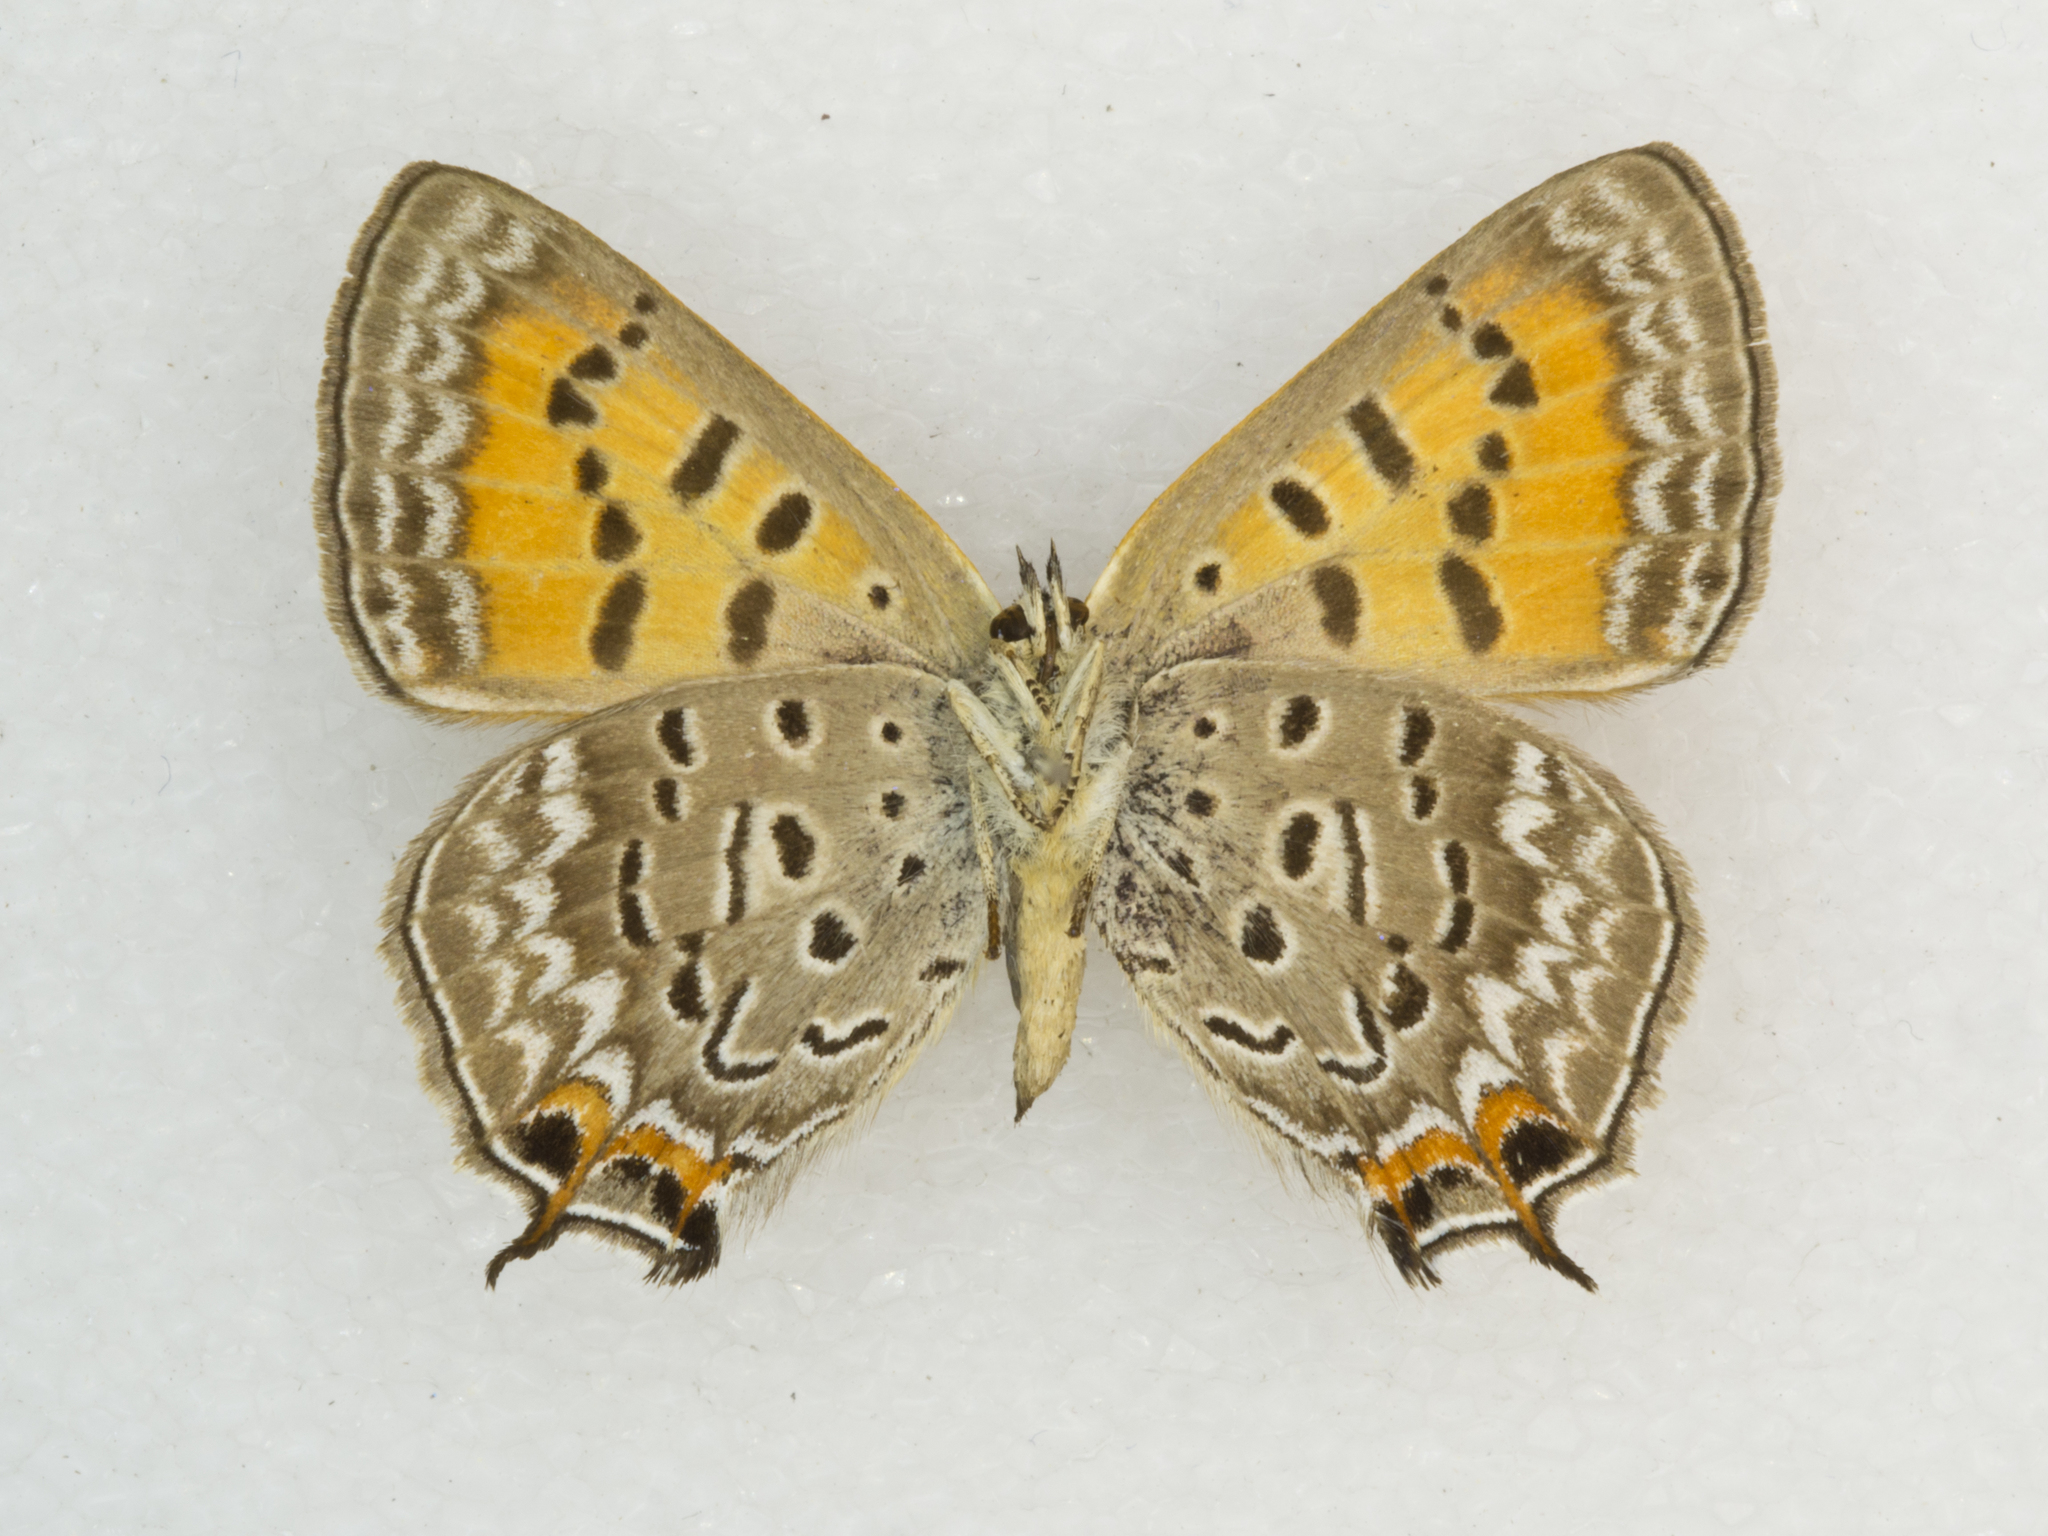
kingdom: Animalia
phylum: Arthropoda
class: Insecta
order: Lepidoptera
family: Lycaenidae
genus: Tharsalea
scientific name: Tharsalea arota
